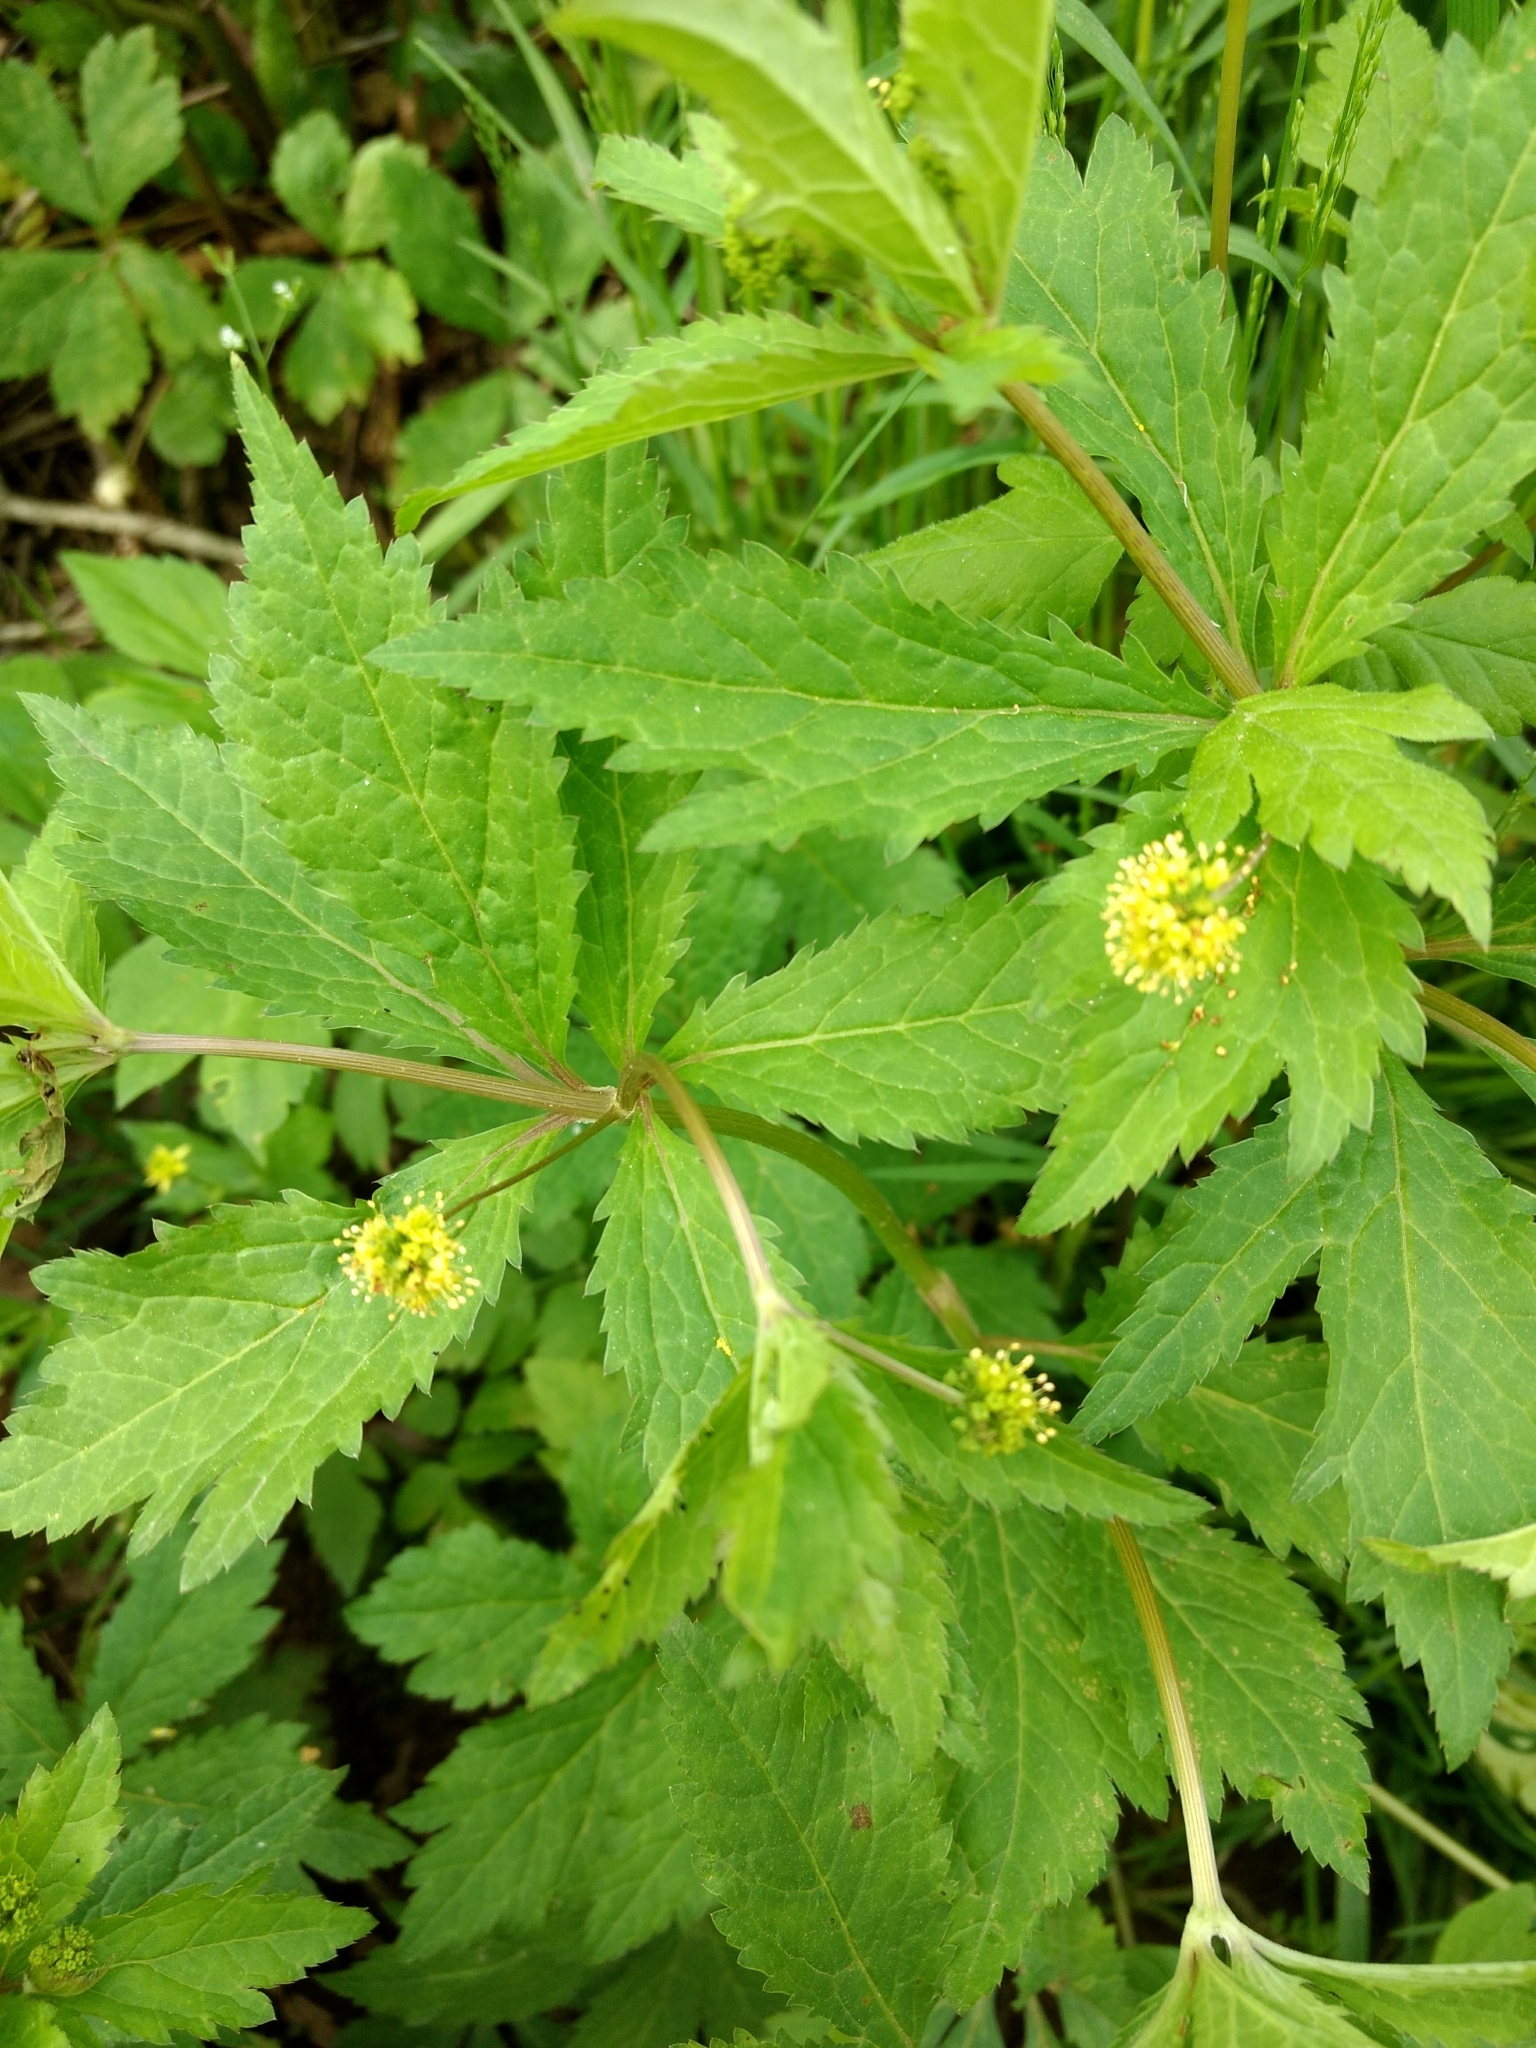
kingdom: Plantae
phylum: Tracheophyta
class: Magnoliopsida
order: Apiales
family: Apiaceae
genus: Sanicula
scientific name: Sanicula odorata
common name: Cluster sanicle
